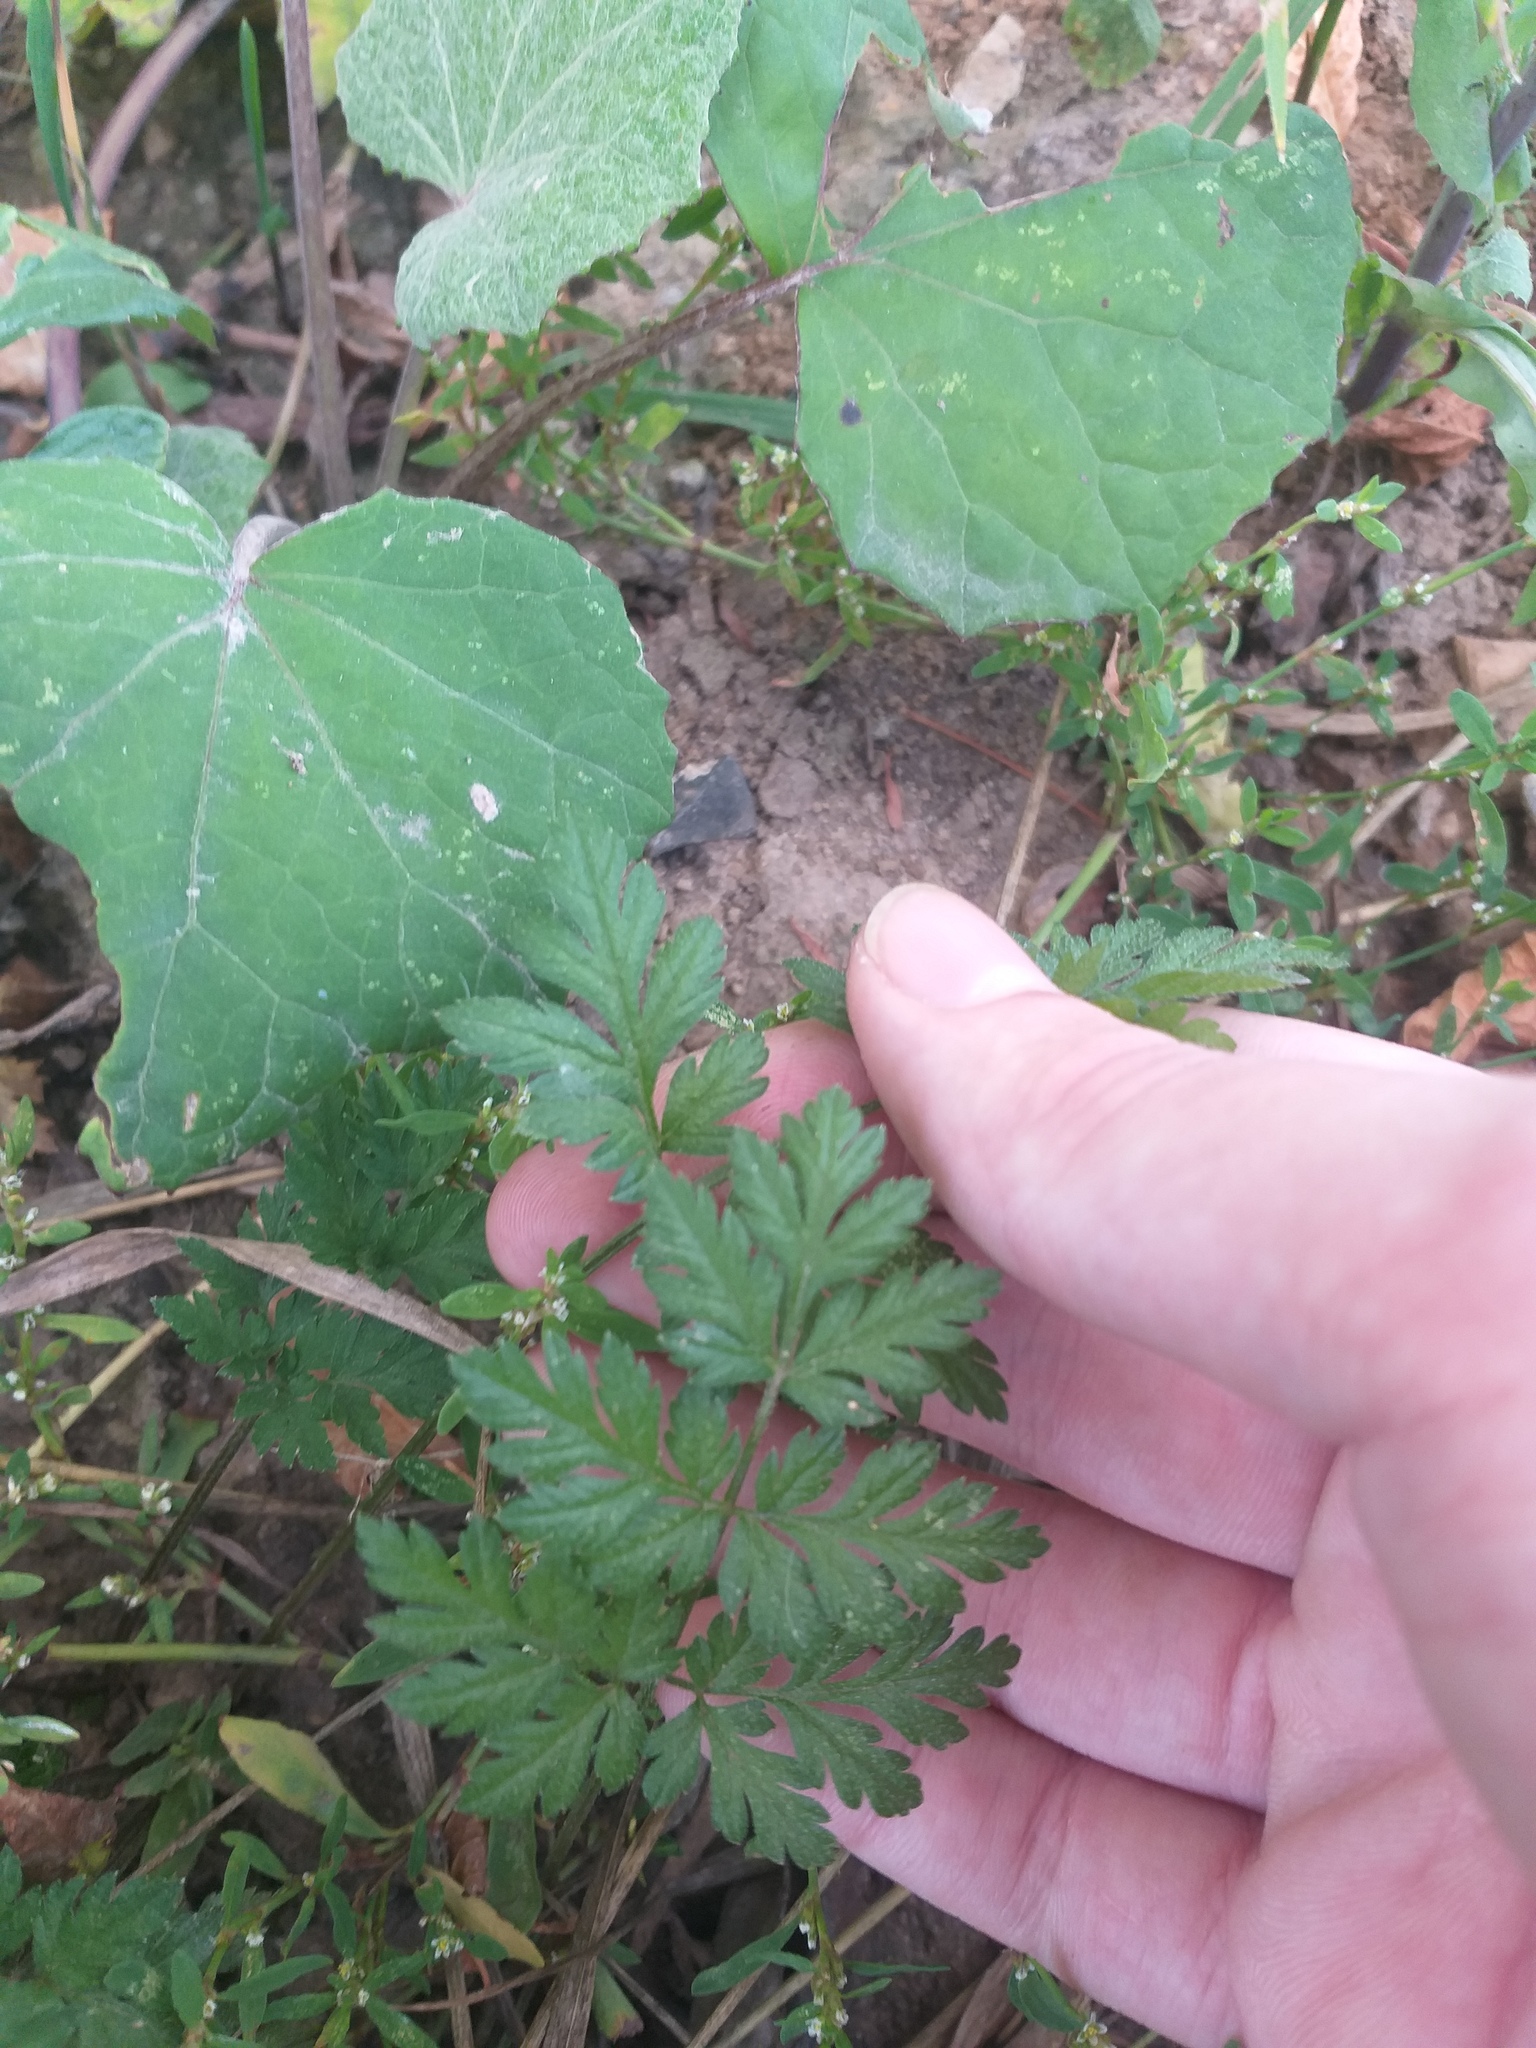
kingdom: Plantae
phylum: Tracheophyta
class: Magnoliopsida
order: Apiales
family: Apiaceae
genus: Torilis
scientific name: Torilis japonica
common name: Upright hedge-parsley
